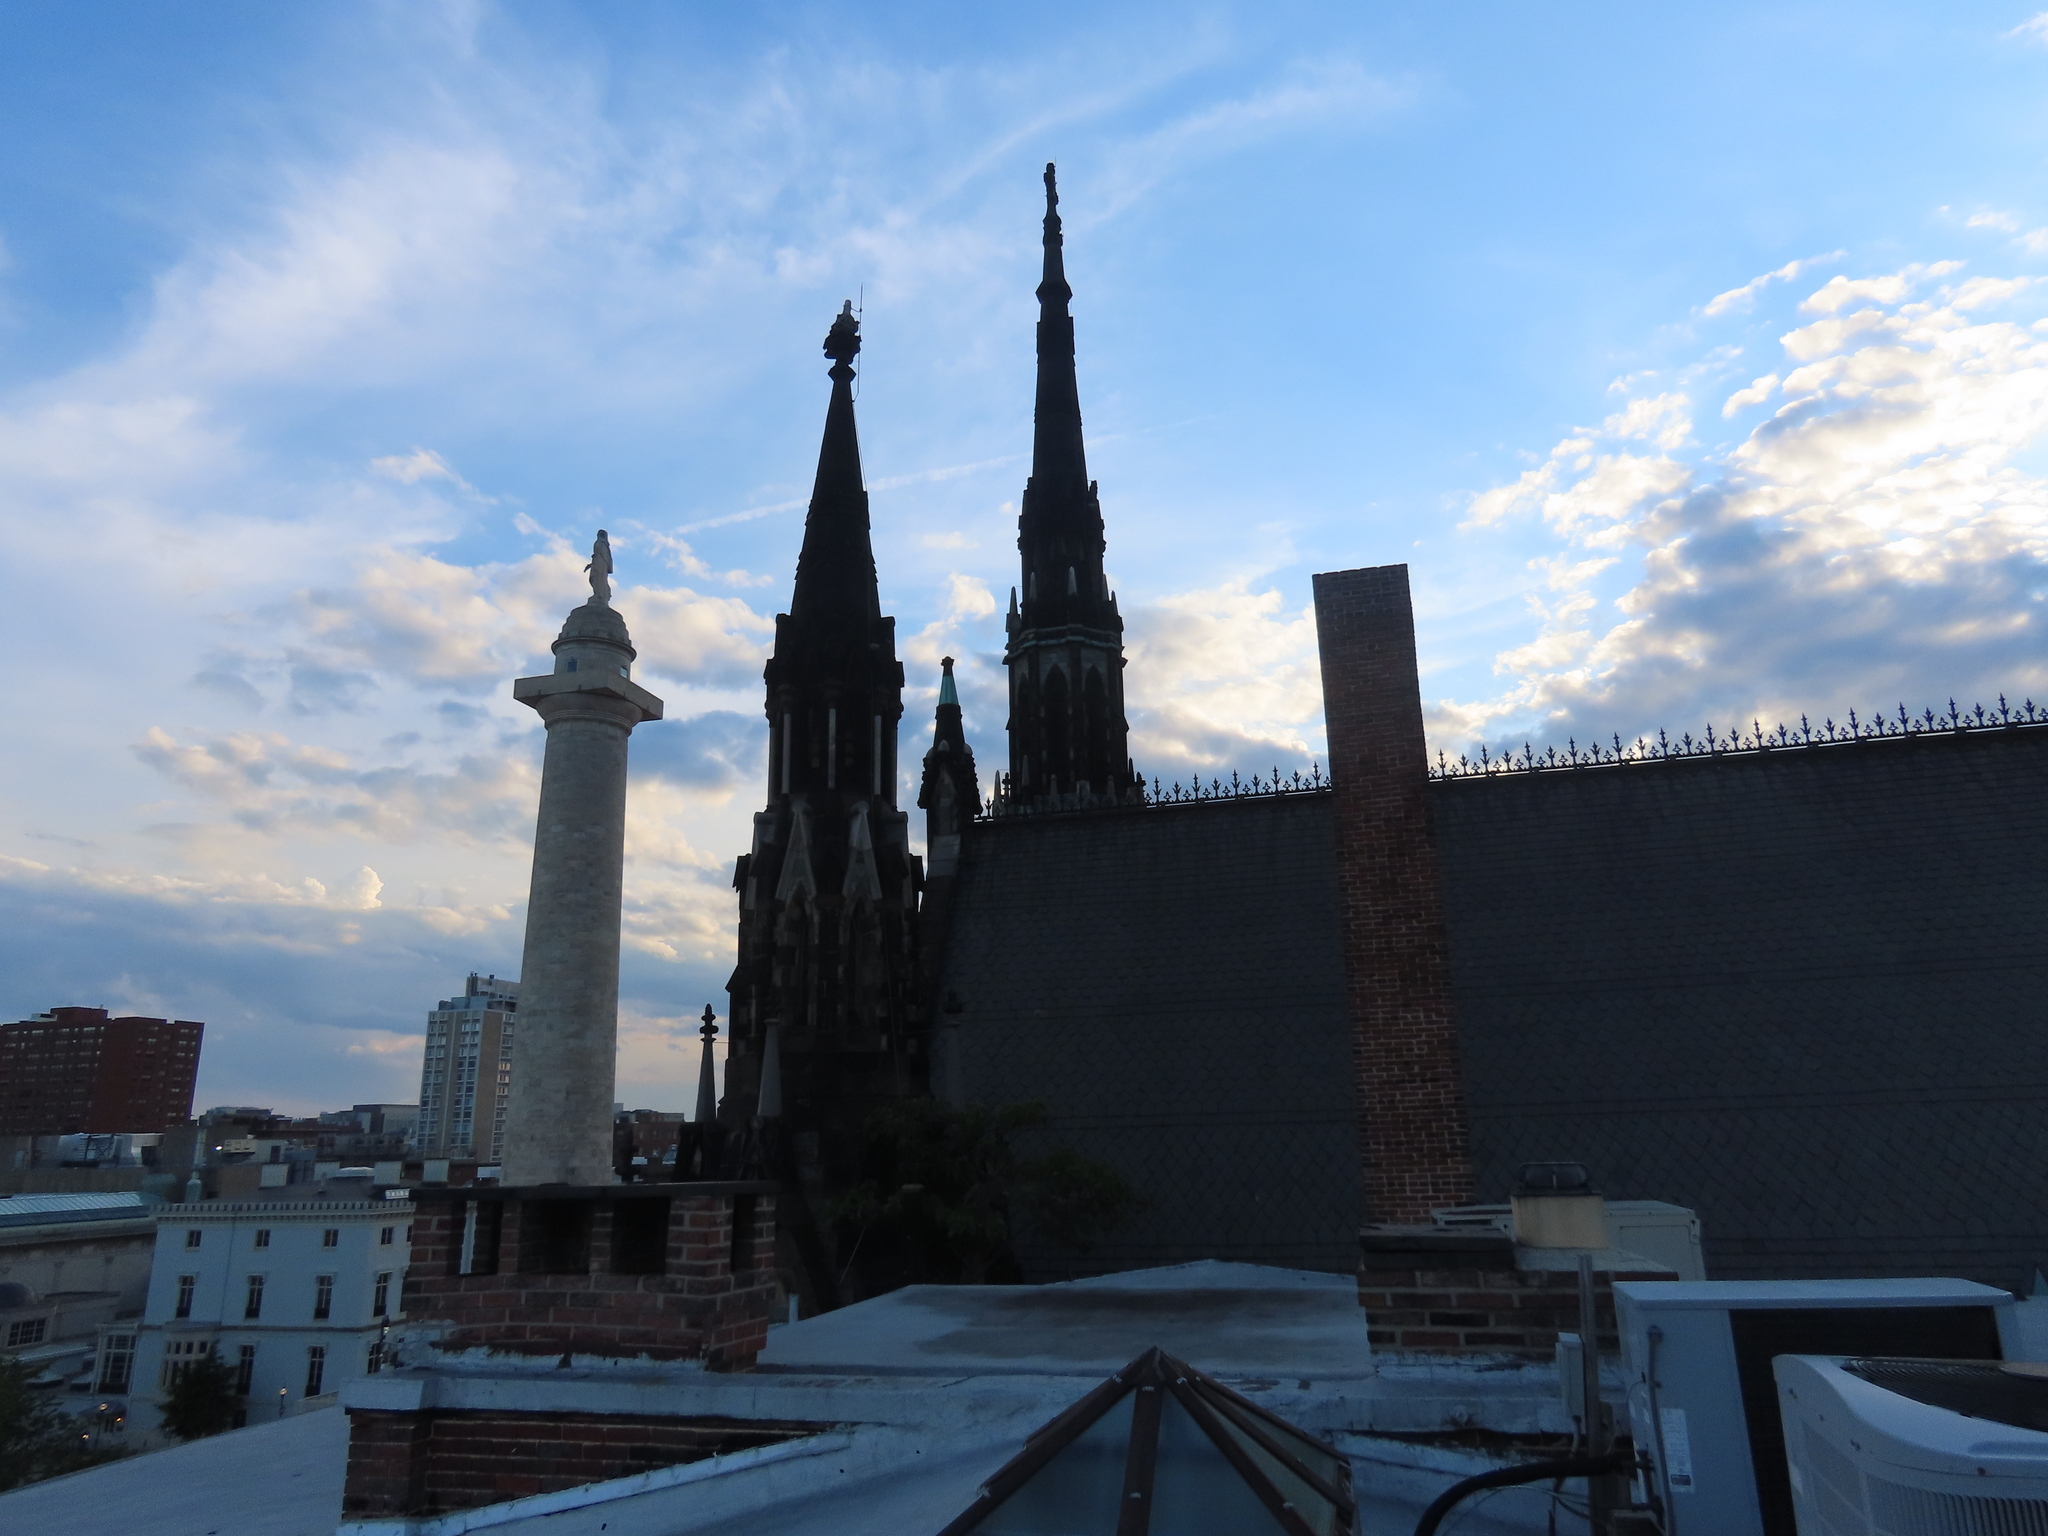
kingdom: Animalia
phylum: Chordata
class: Aves
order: Falconiformes
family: Falconidae
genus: Falco
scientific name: Falco sparverius
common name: American kestrel
